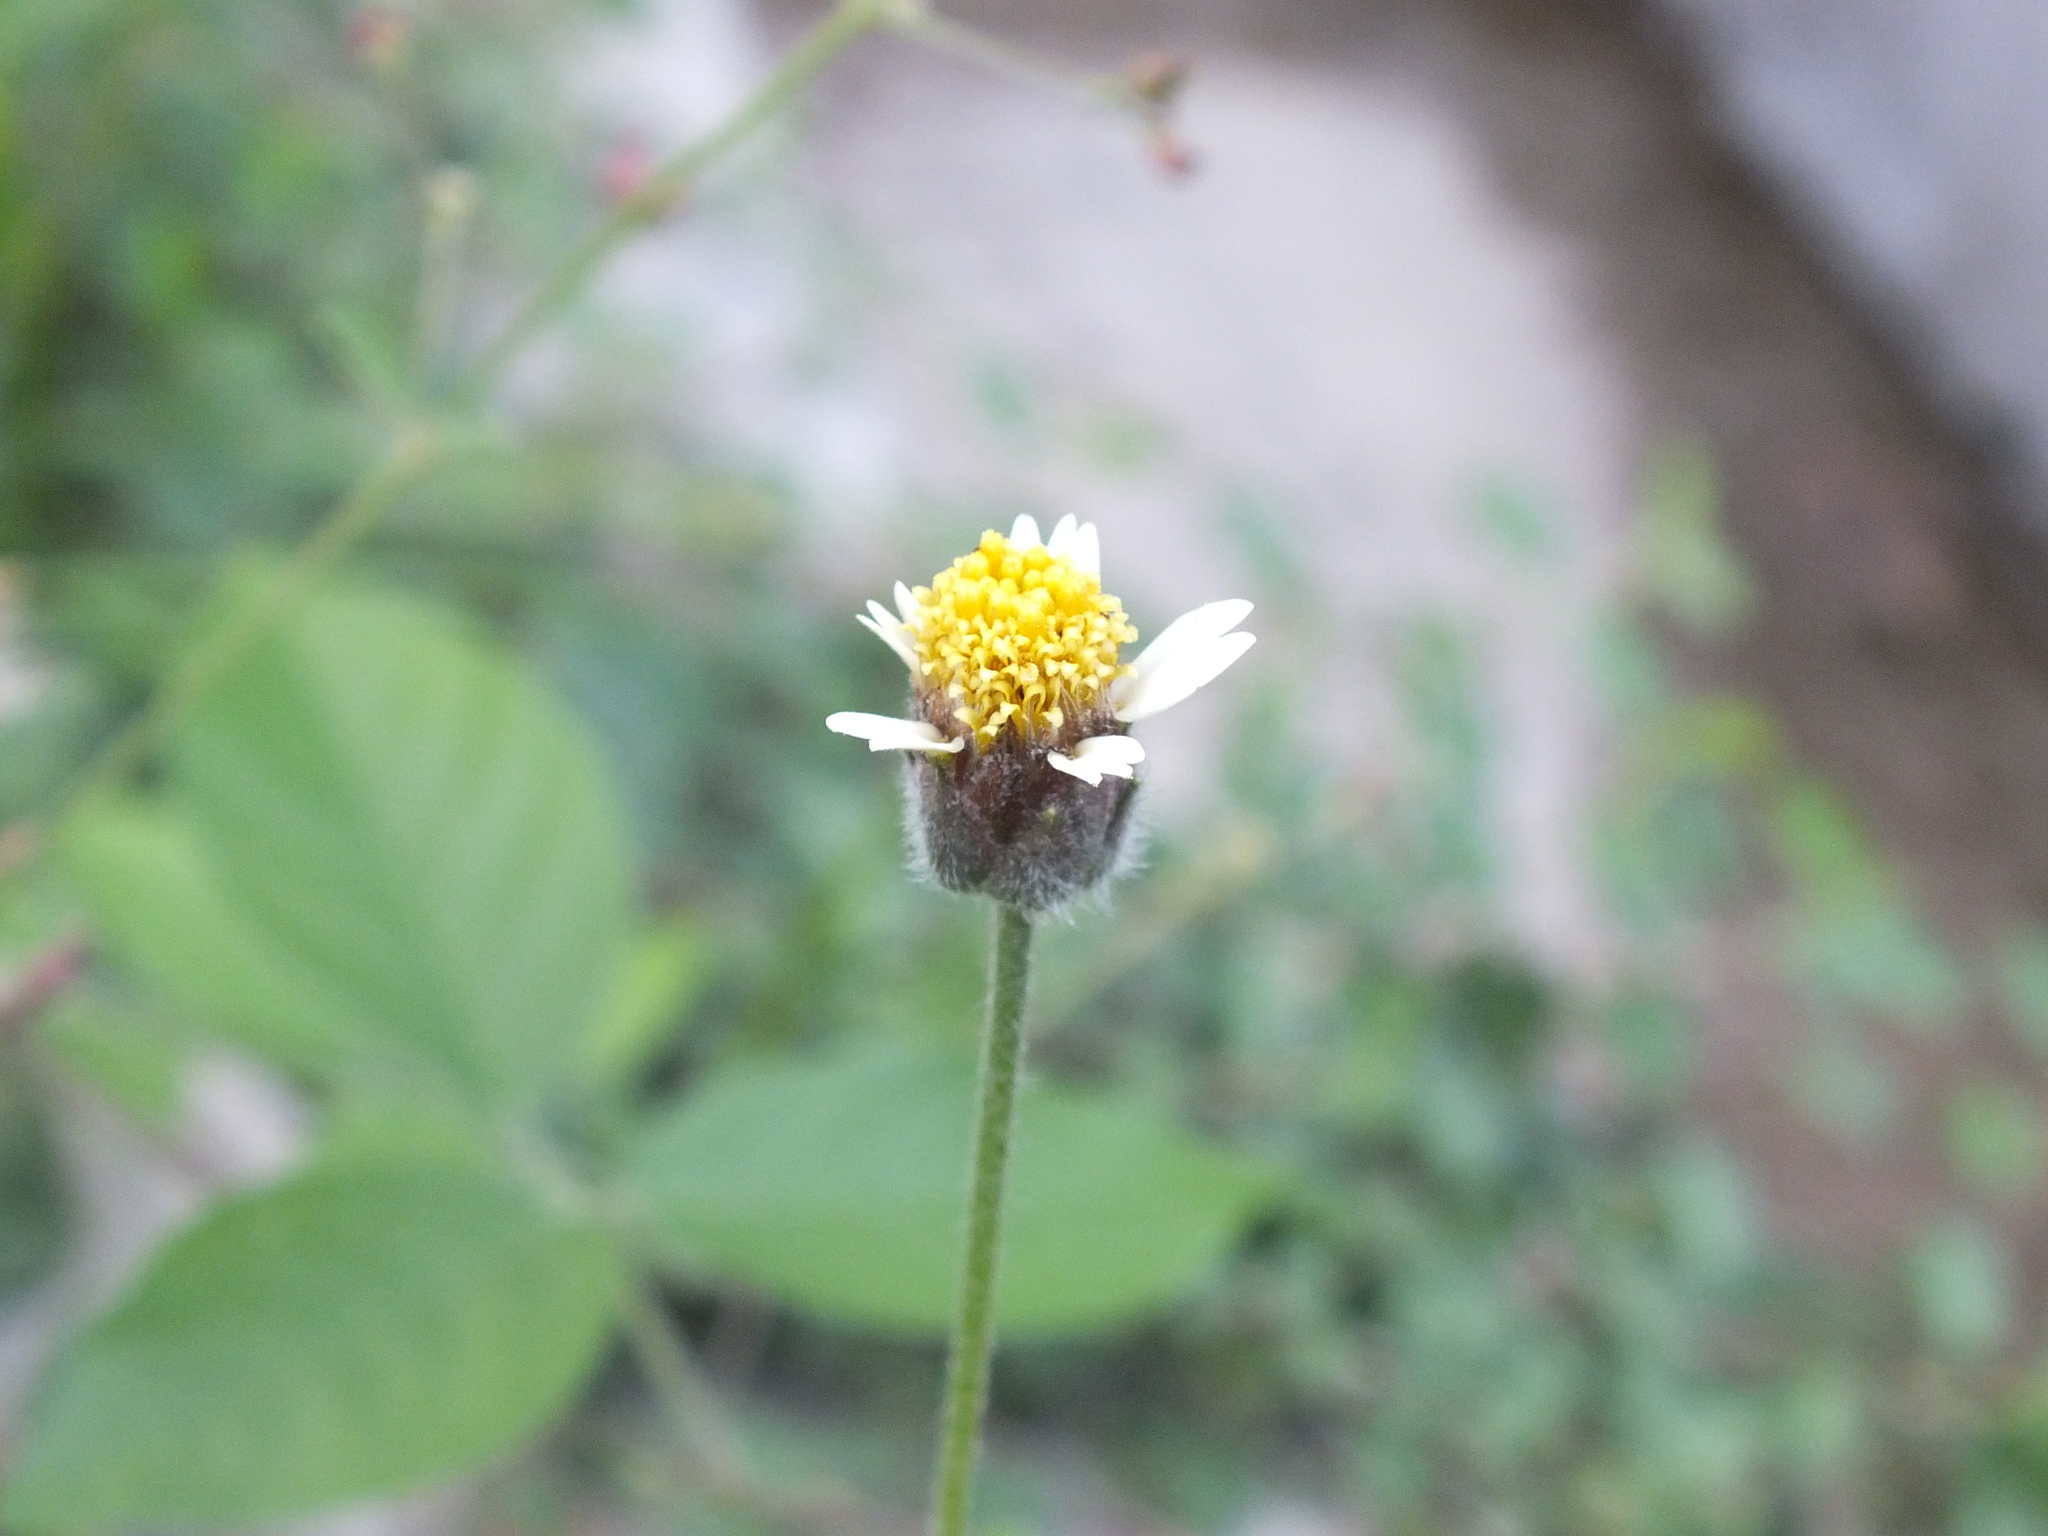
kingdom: Plantae
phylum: Tracheophyta
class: Magnoliopsida
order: Asterales
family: Asteraceae
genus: Tridax
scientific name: Tridax procumbens
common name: Coatbuttons
